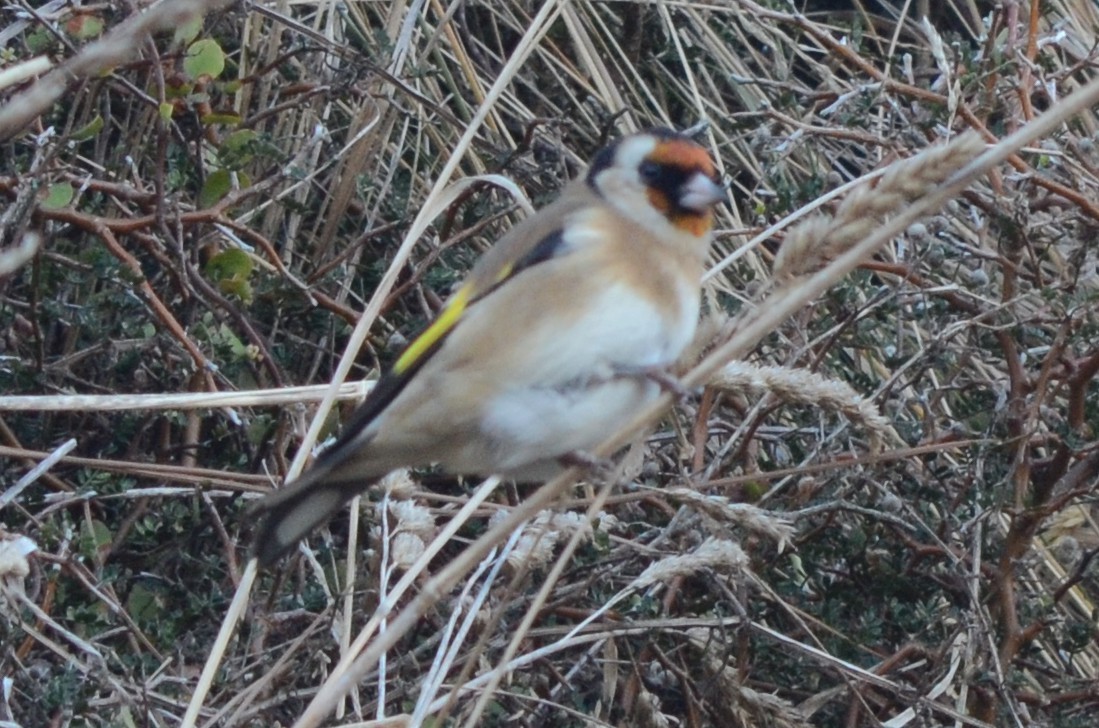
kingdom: Animalia
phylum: Chordata
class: Aves
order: Passeriformes
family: Fringillidae
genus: Carduelis
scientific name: Carduelis carduelis
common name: European goldfinch
